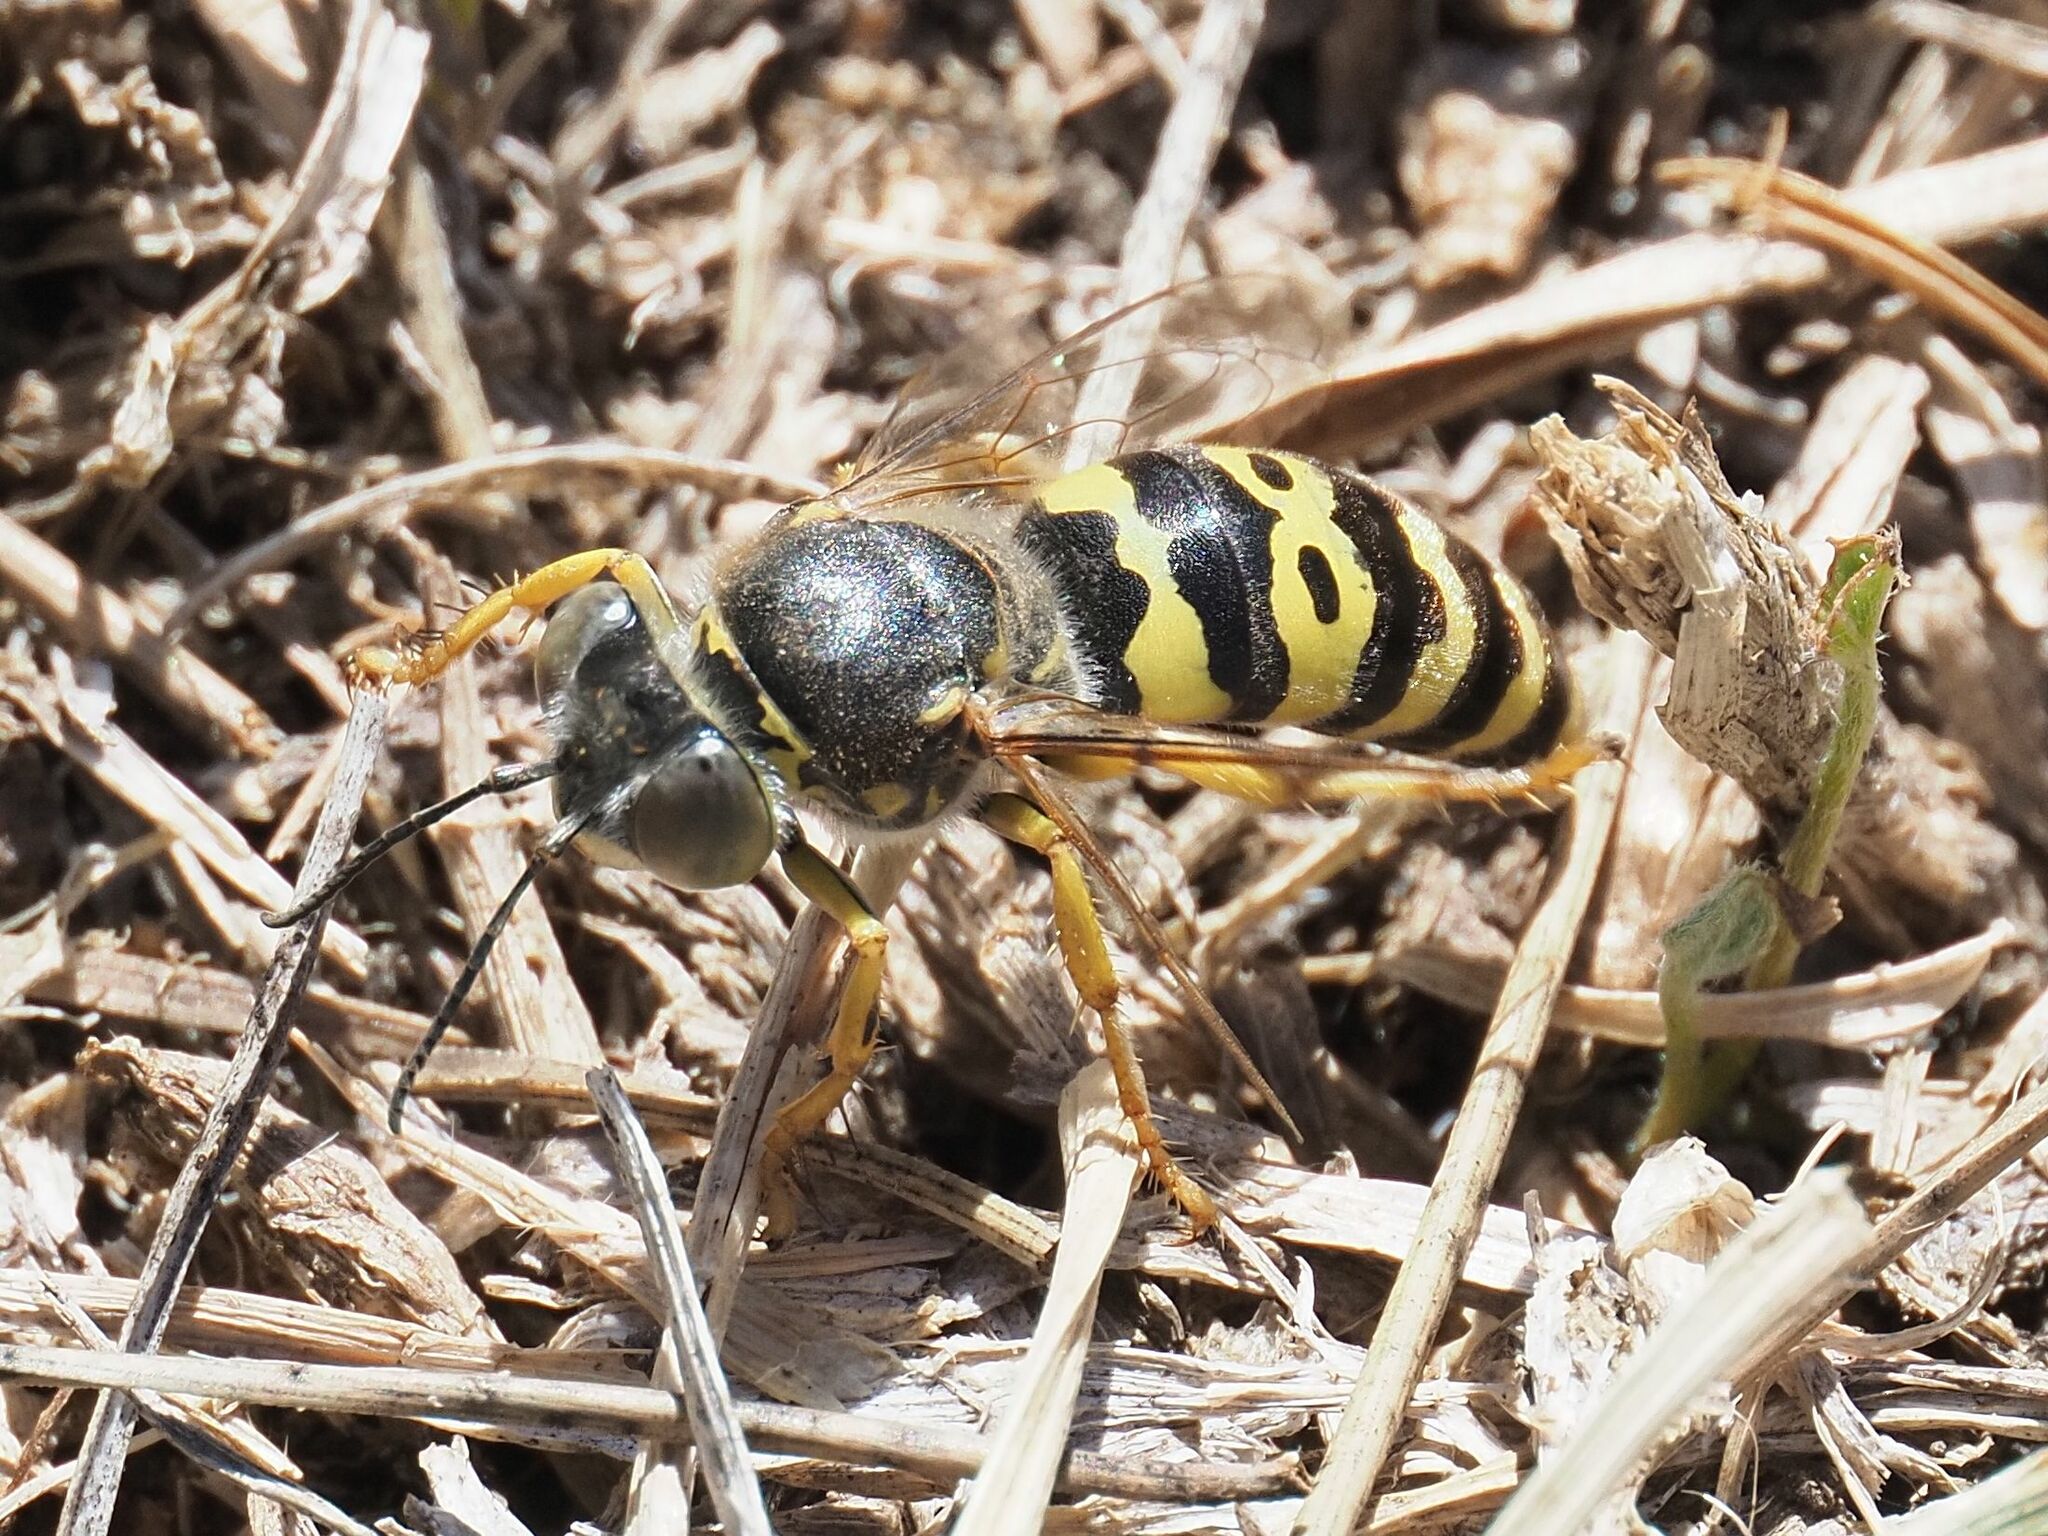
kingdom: Animalia
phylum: Arthropoda
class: Insecta
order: Hymenoptera
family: Crabronidae
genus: Bembix
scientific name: Bembix oculata
